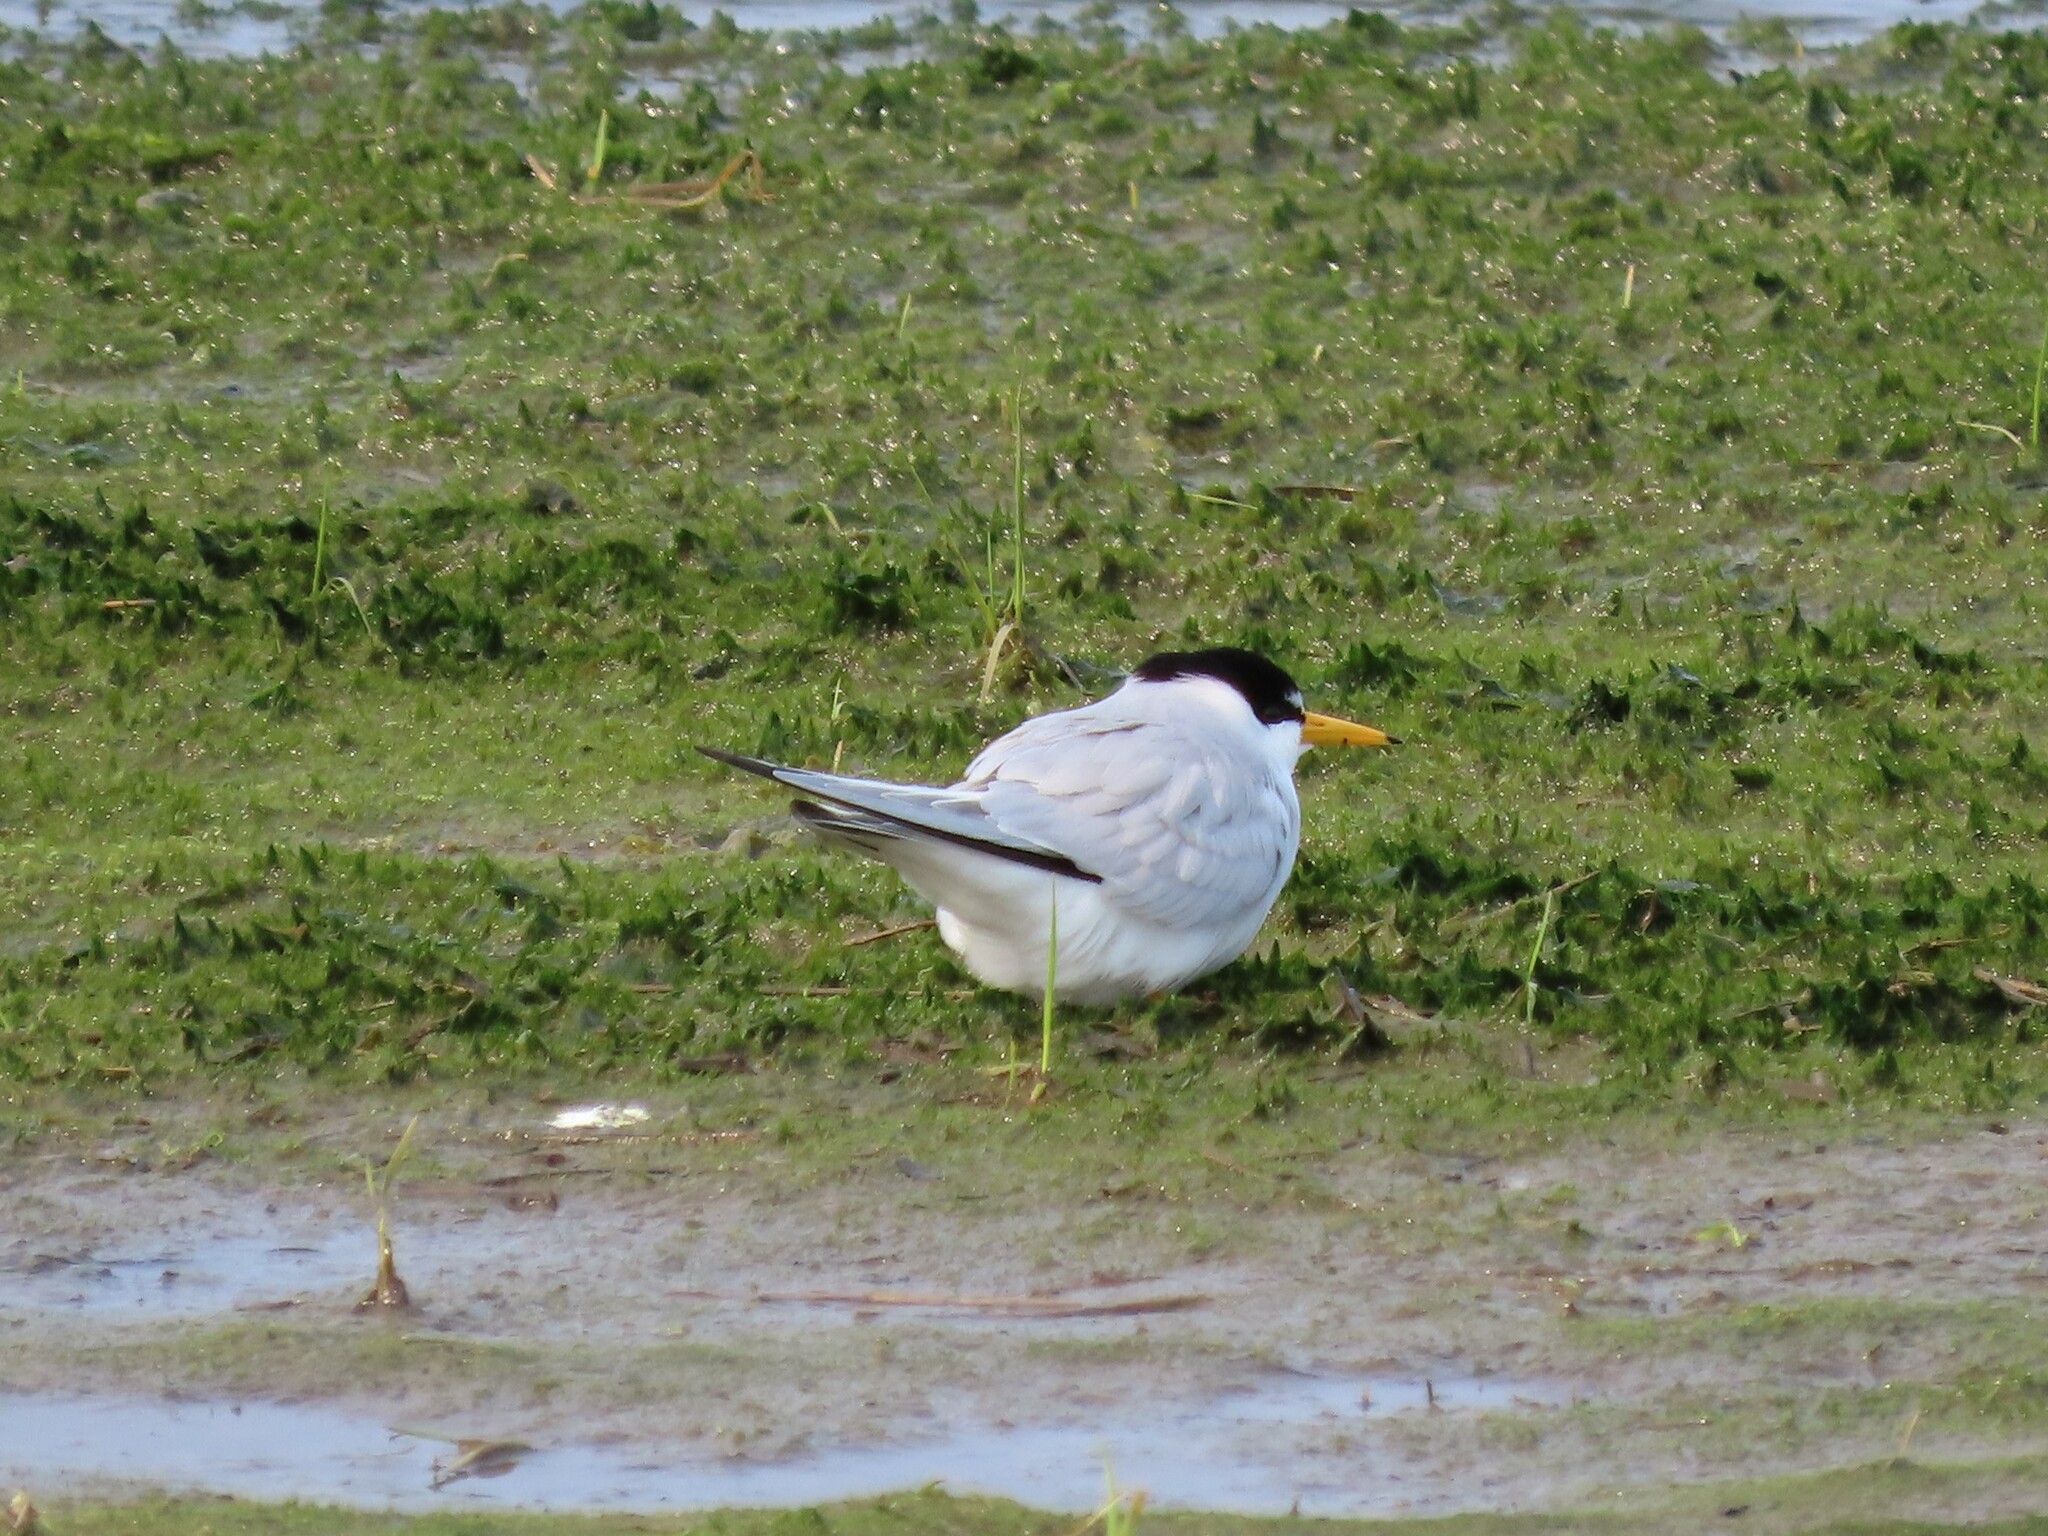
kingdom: Animalia
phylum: Chordata
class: Aves
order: Charadriiformes
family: Laridae
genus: Sternula
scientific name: Sternula antillarum
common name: Least tern
